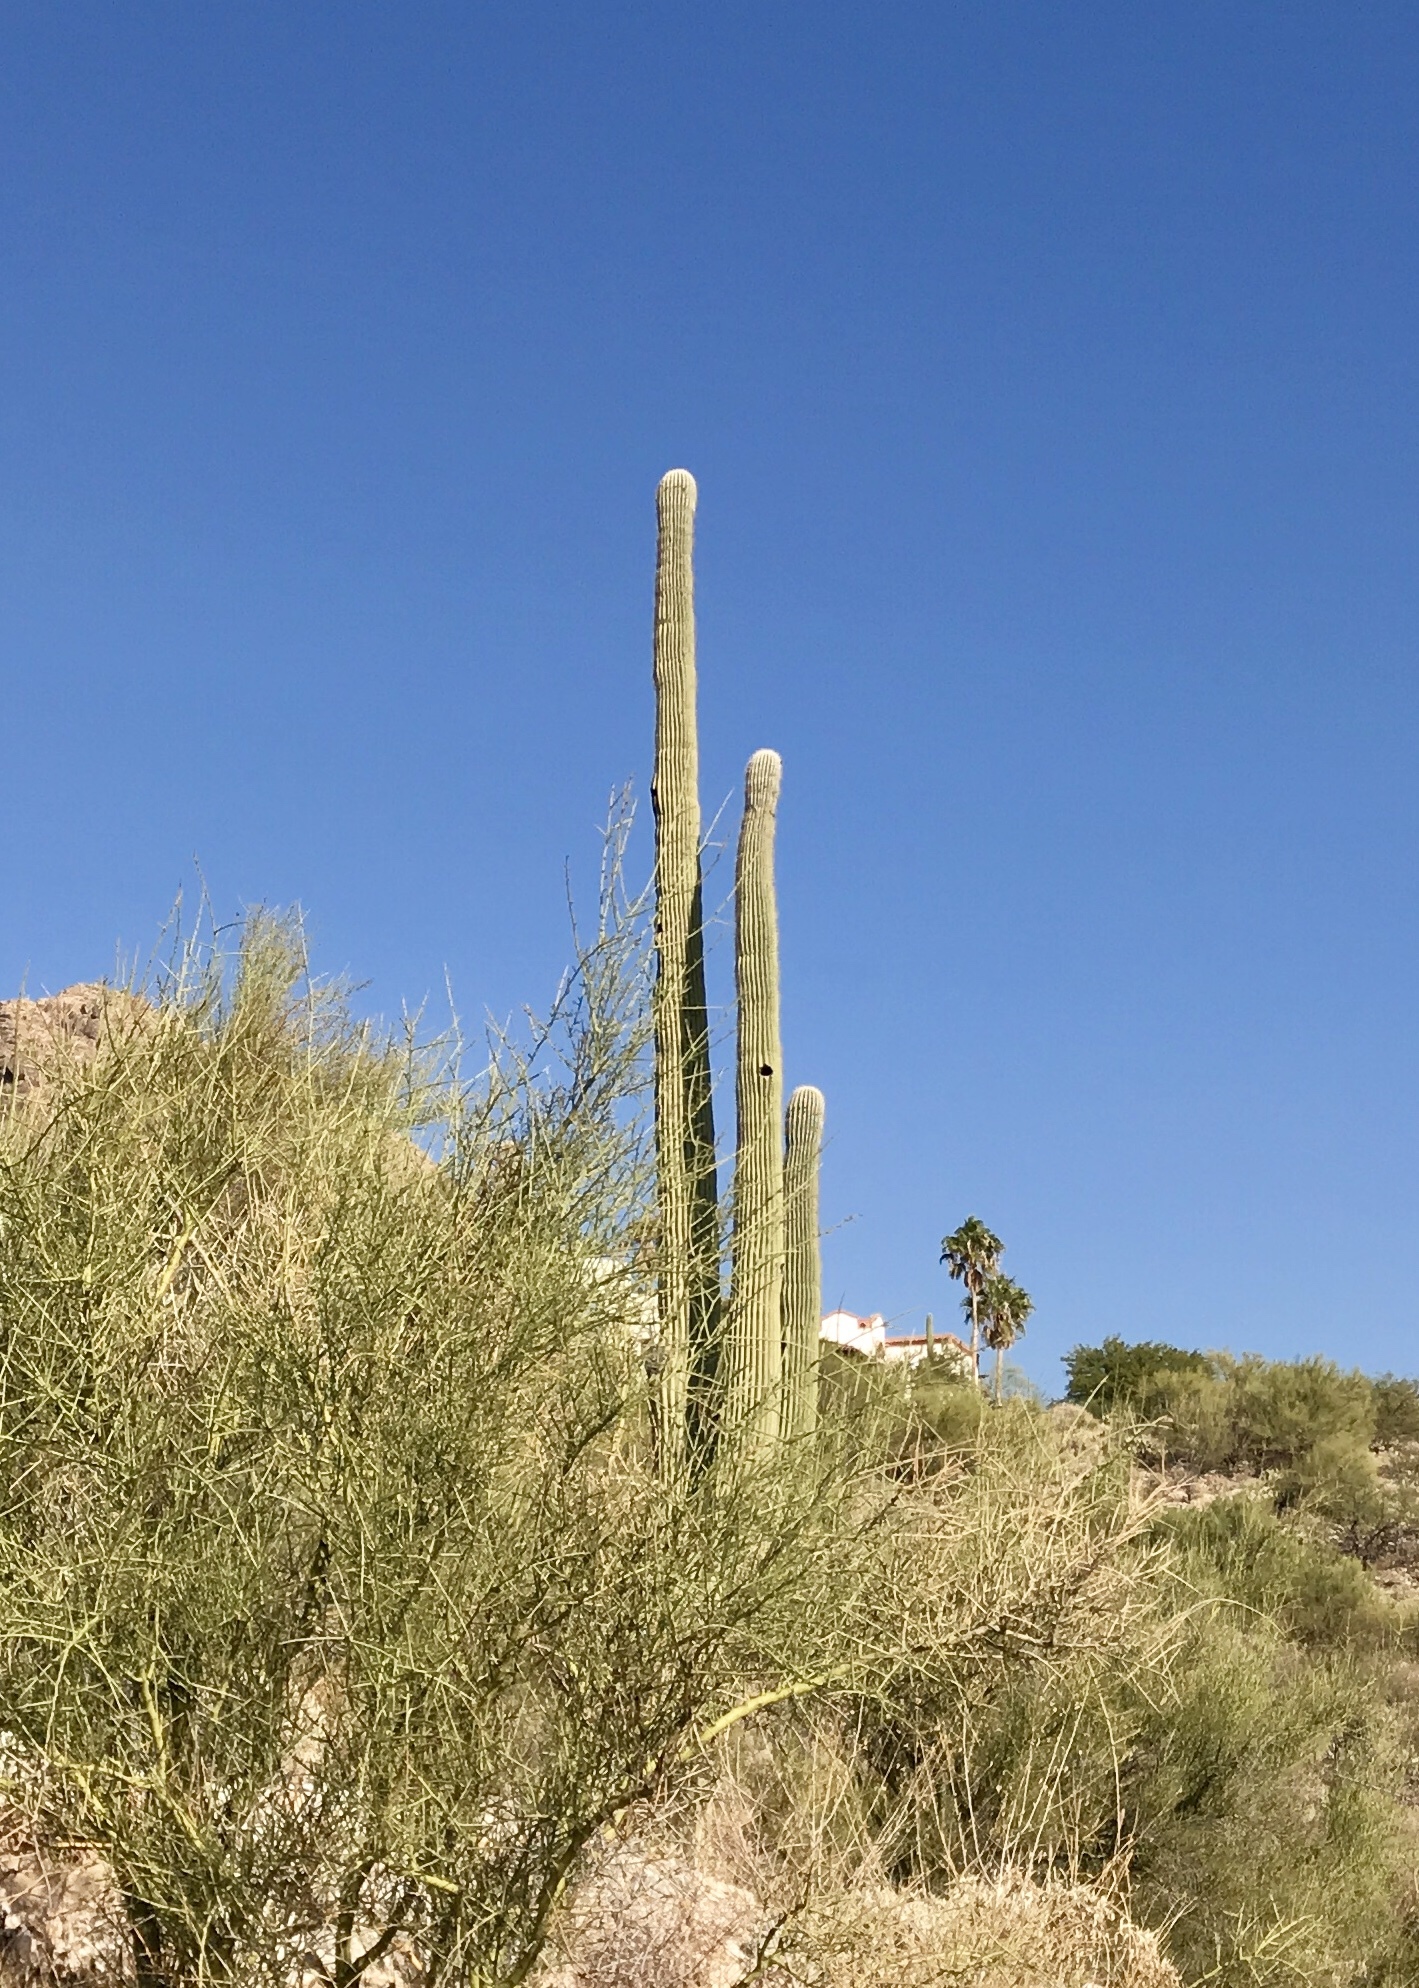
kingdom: Plantae
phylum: Tracheophyta
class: Magnoliopsida
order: Caryophyllales
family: Cactaceae
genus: Carnegiea
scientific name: Carnegiea gigantea
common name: Saguaro
